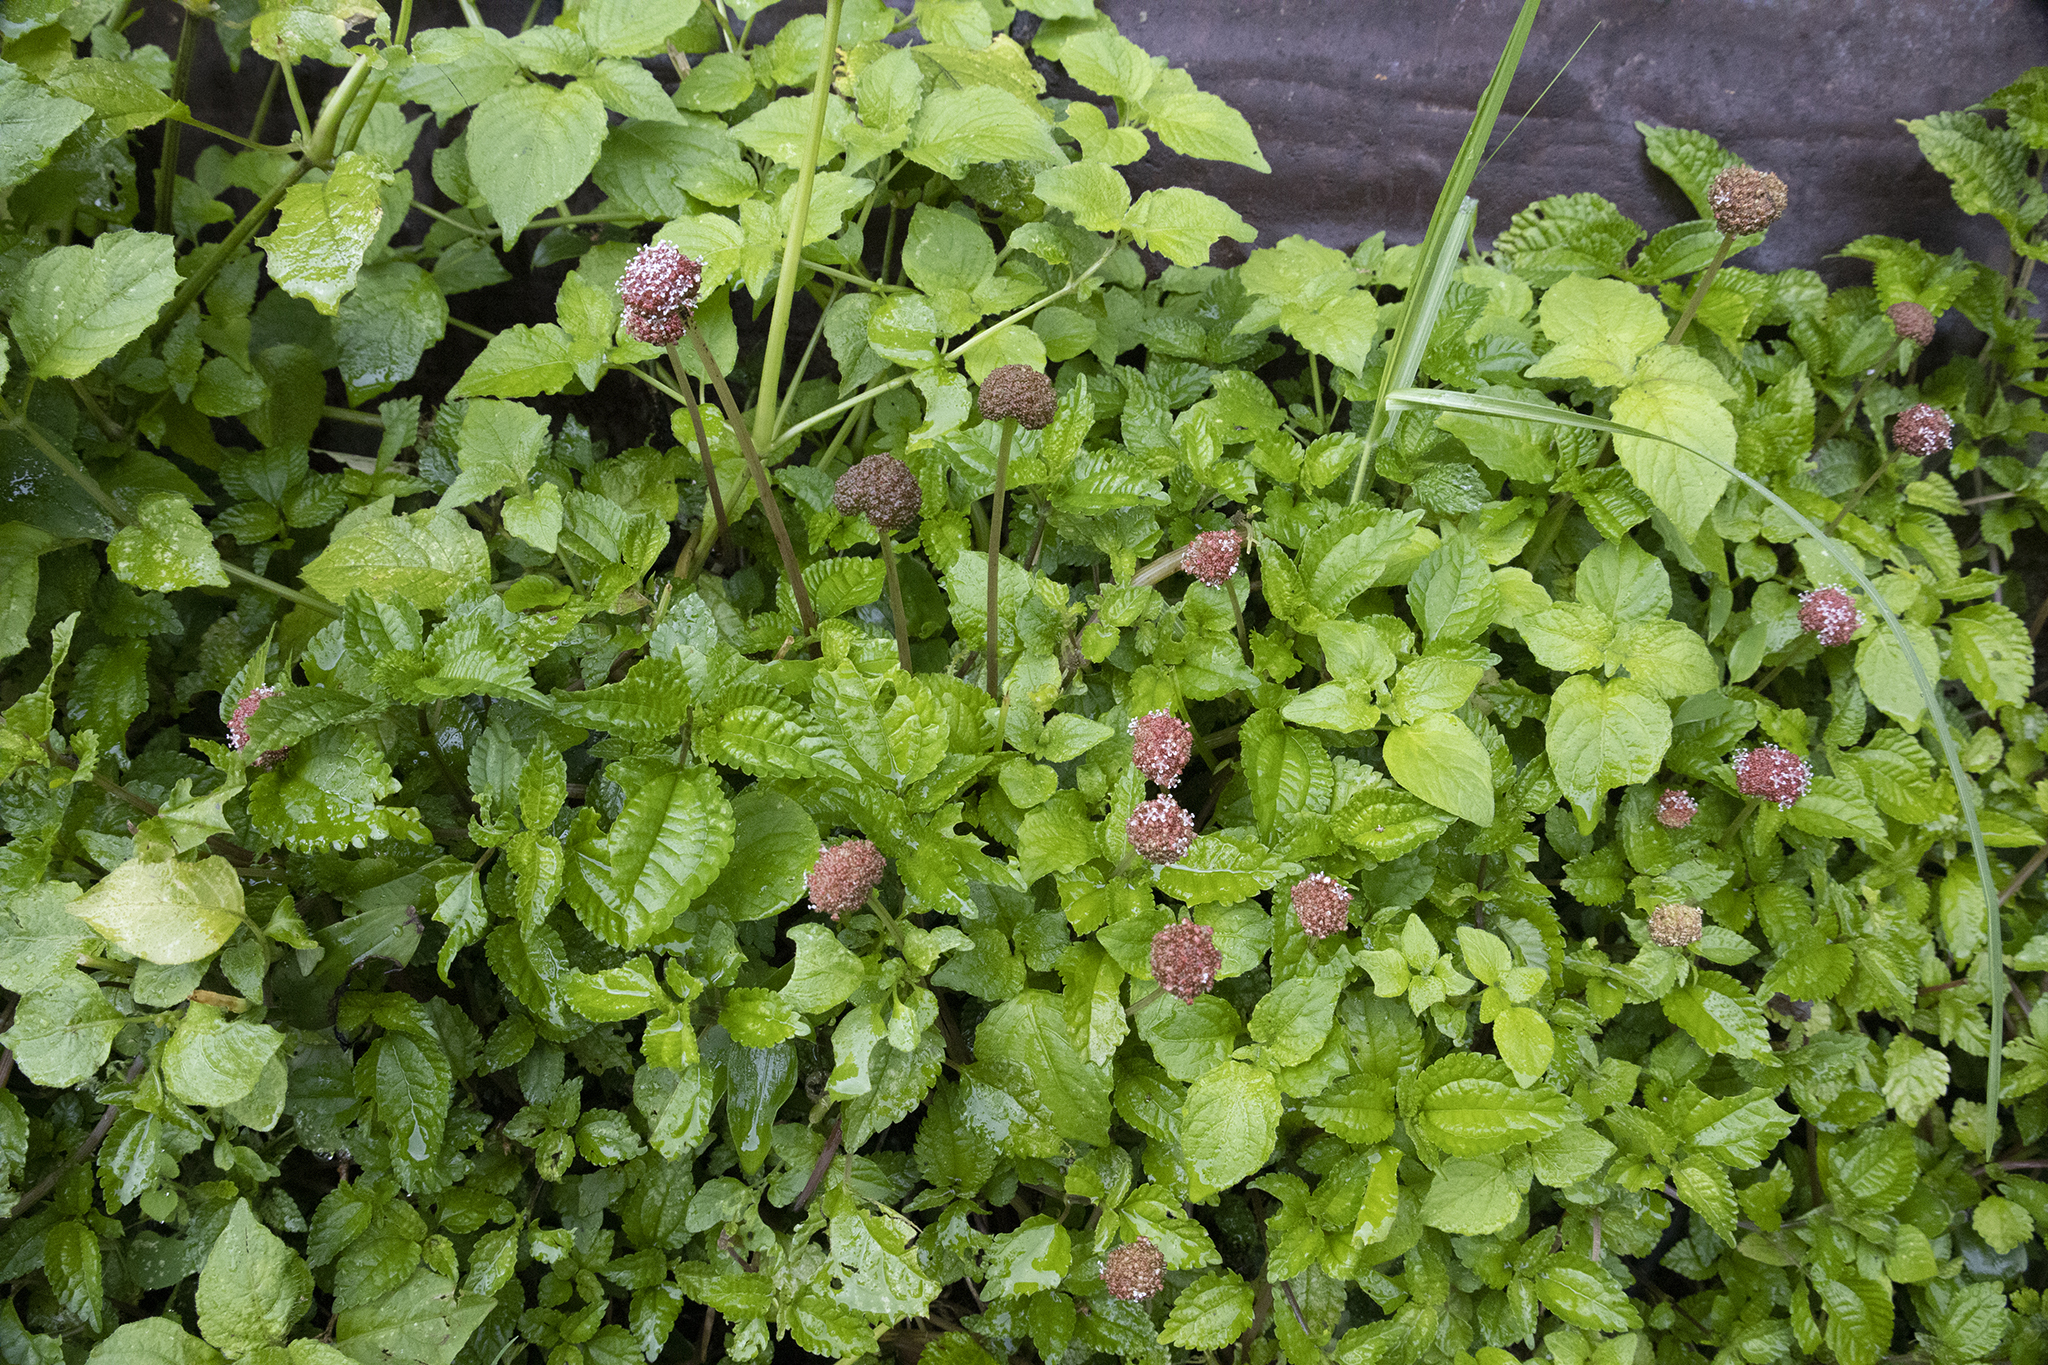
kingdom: Plantae
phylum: Tracheophyta
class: Magnoliopsida
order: Rosales
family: Urticaceae
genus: Lecanthus
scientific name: Lecanthus peduncularis
